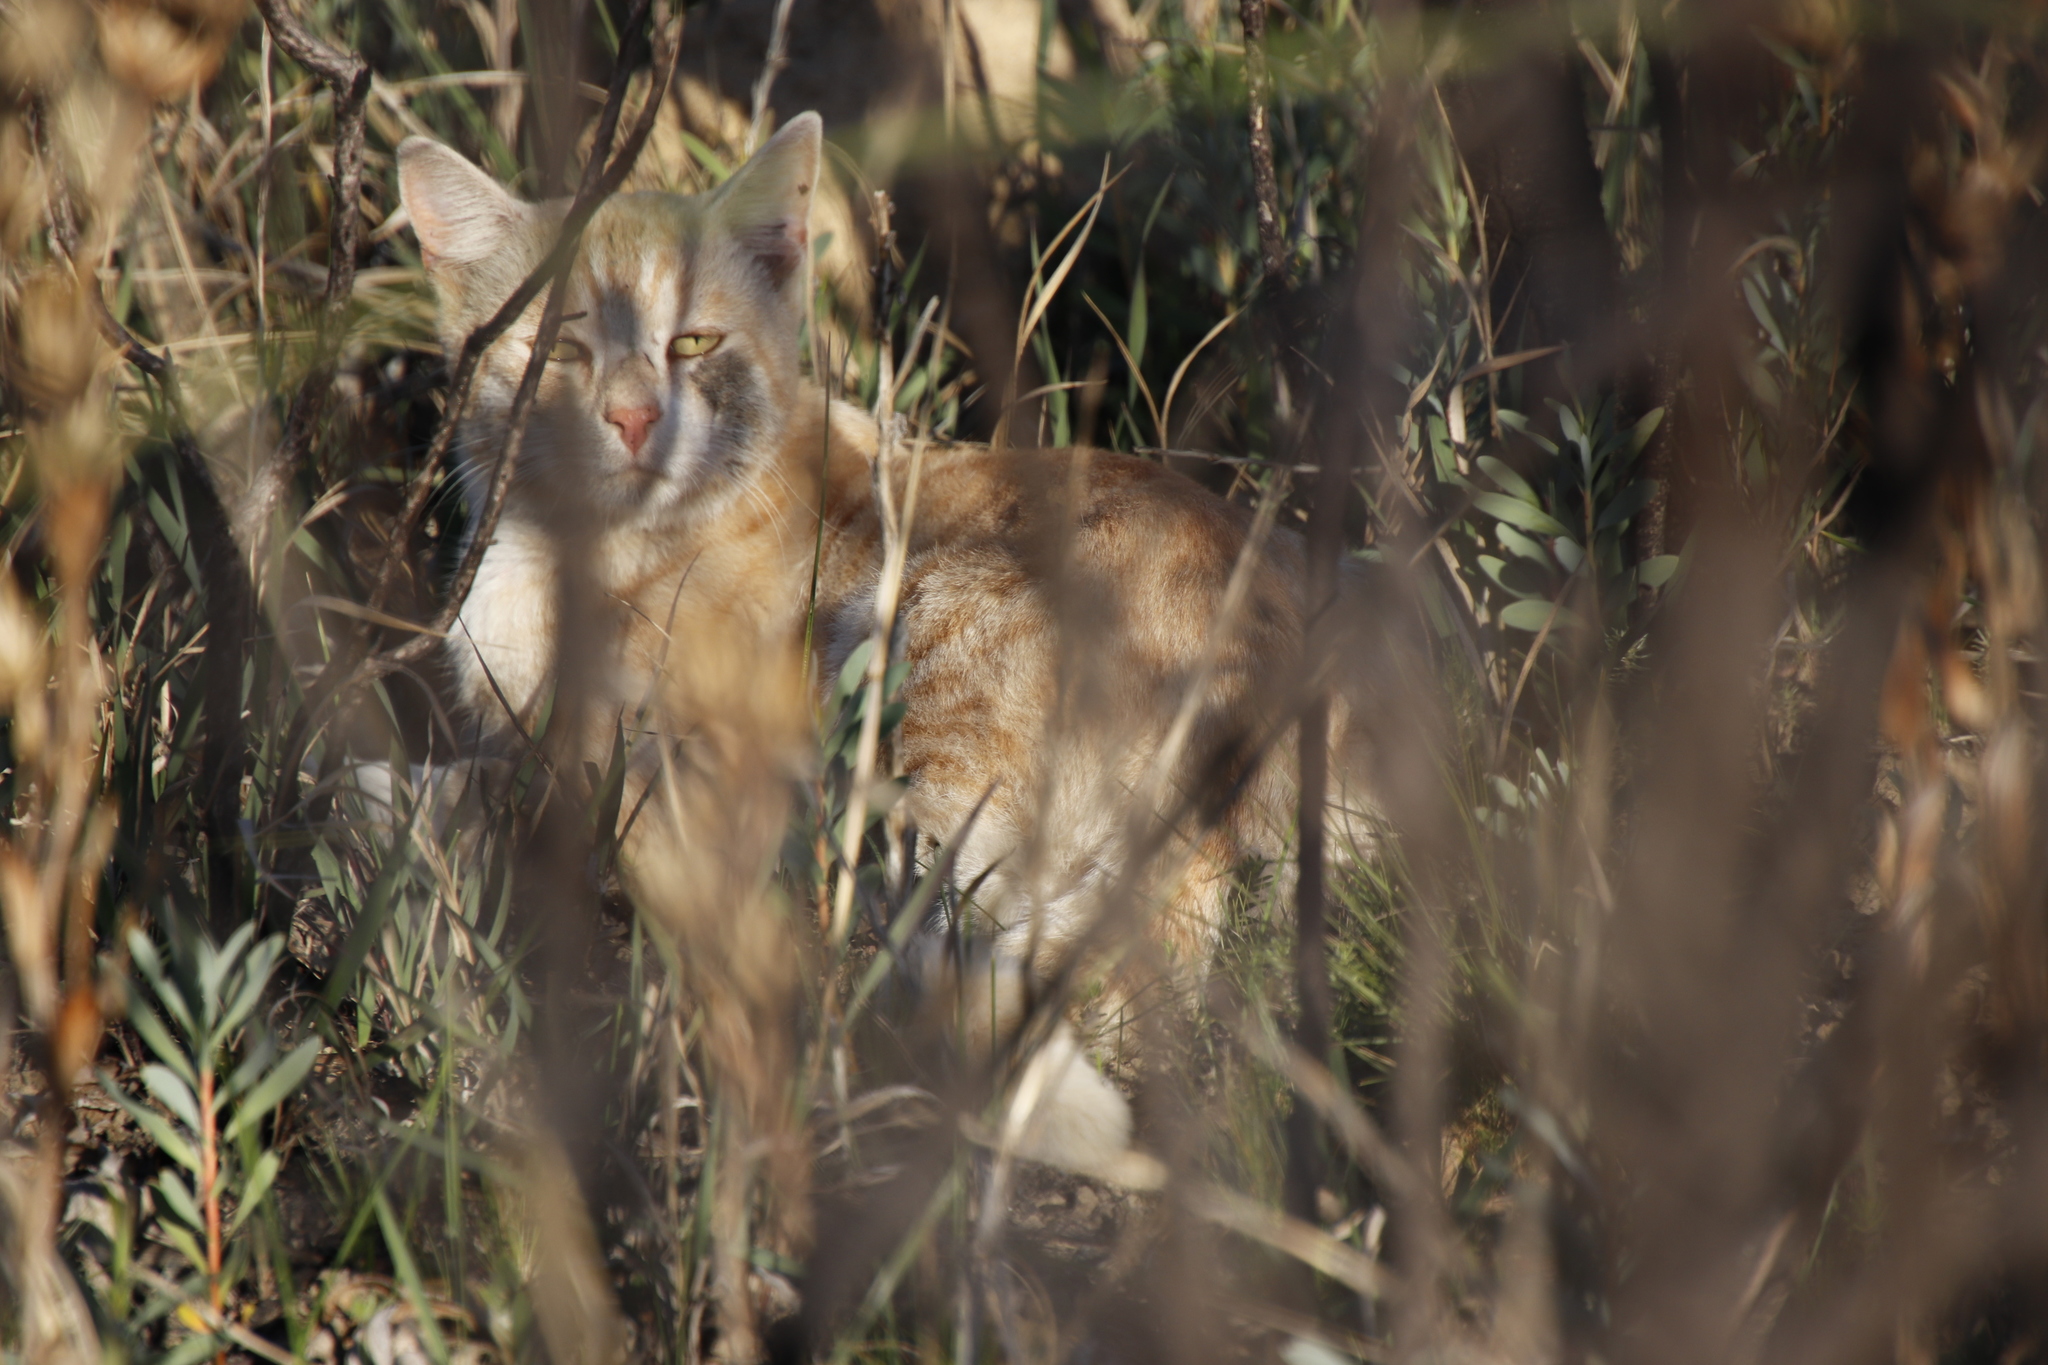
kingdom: Animalia
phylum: Chordata
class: Mammalia
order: Carnivora
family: Felidae
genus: Felis
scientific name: Felis catus
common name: Domestic cat
